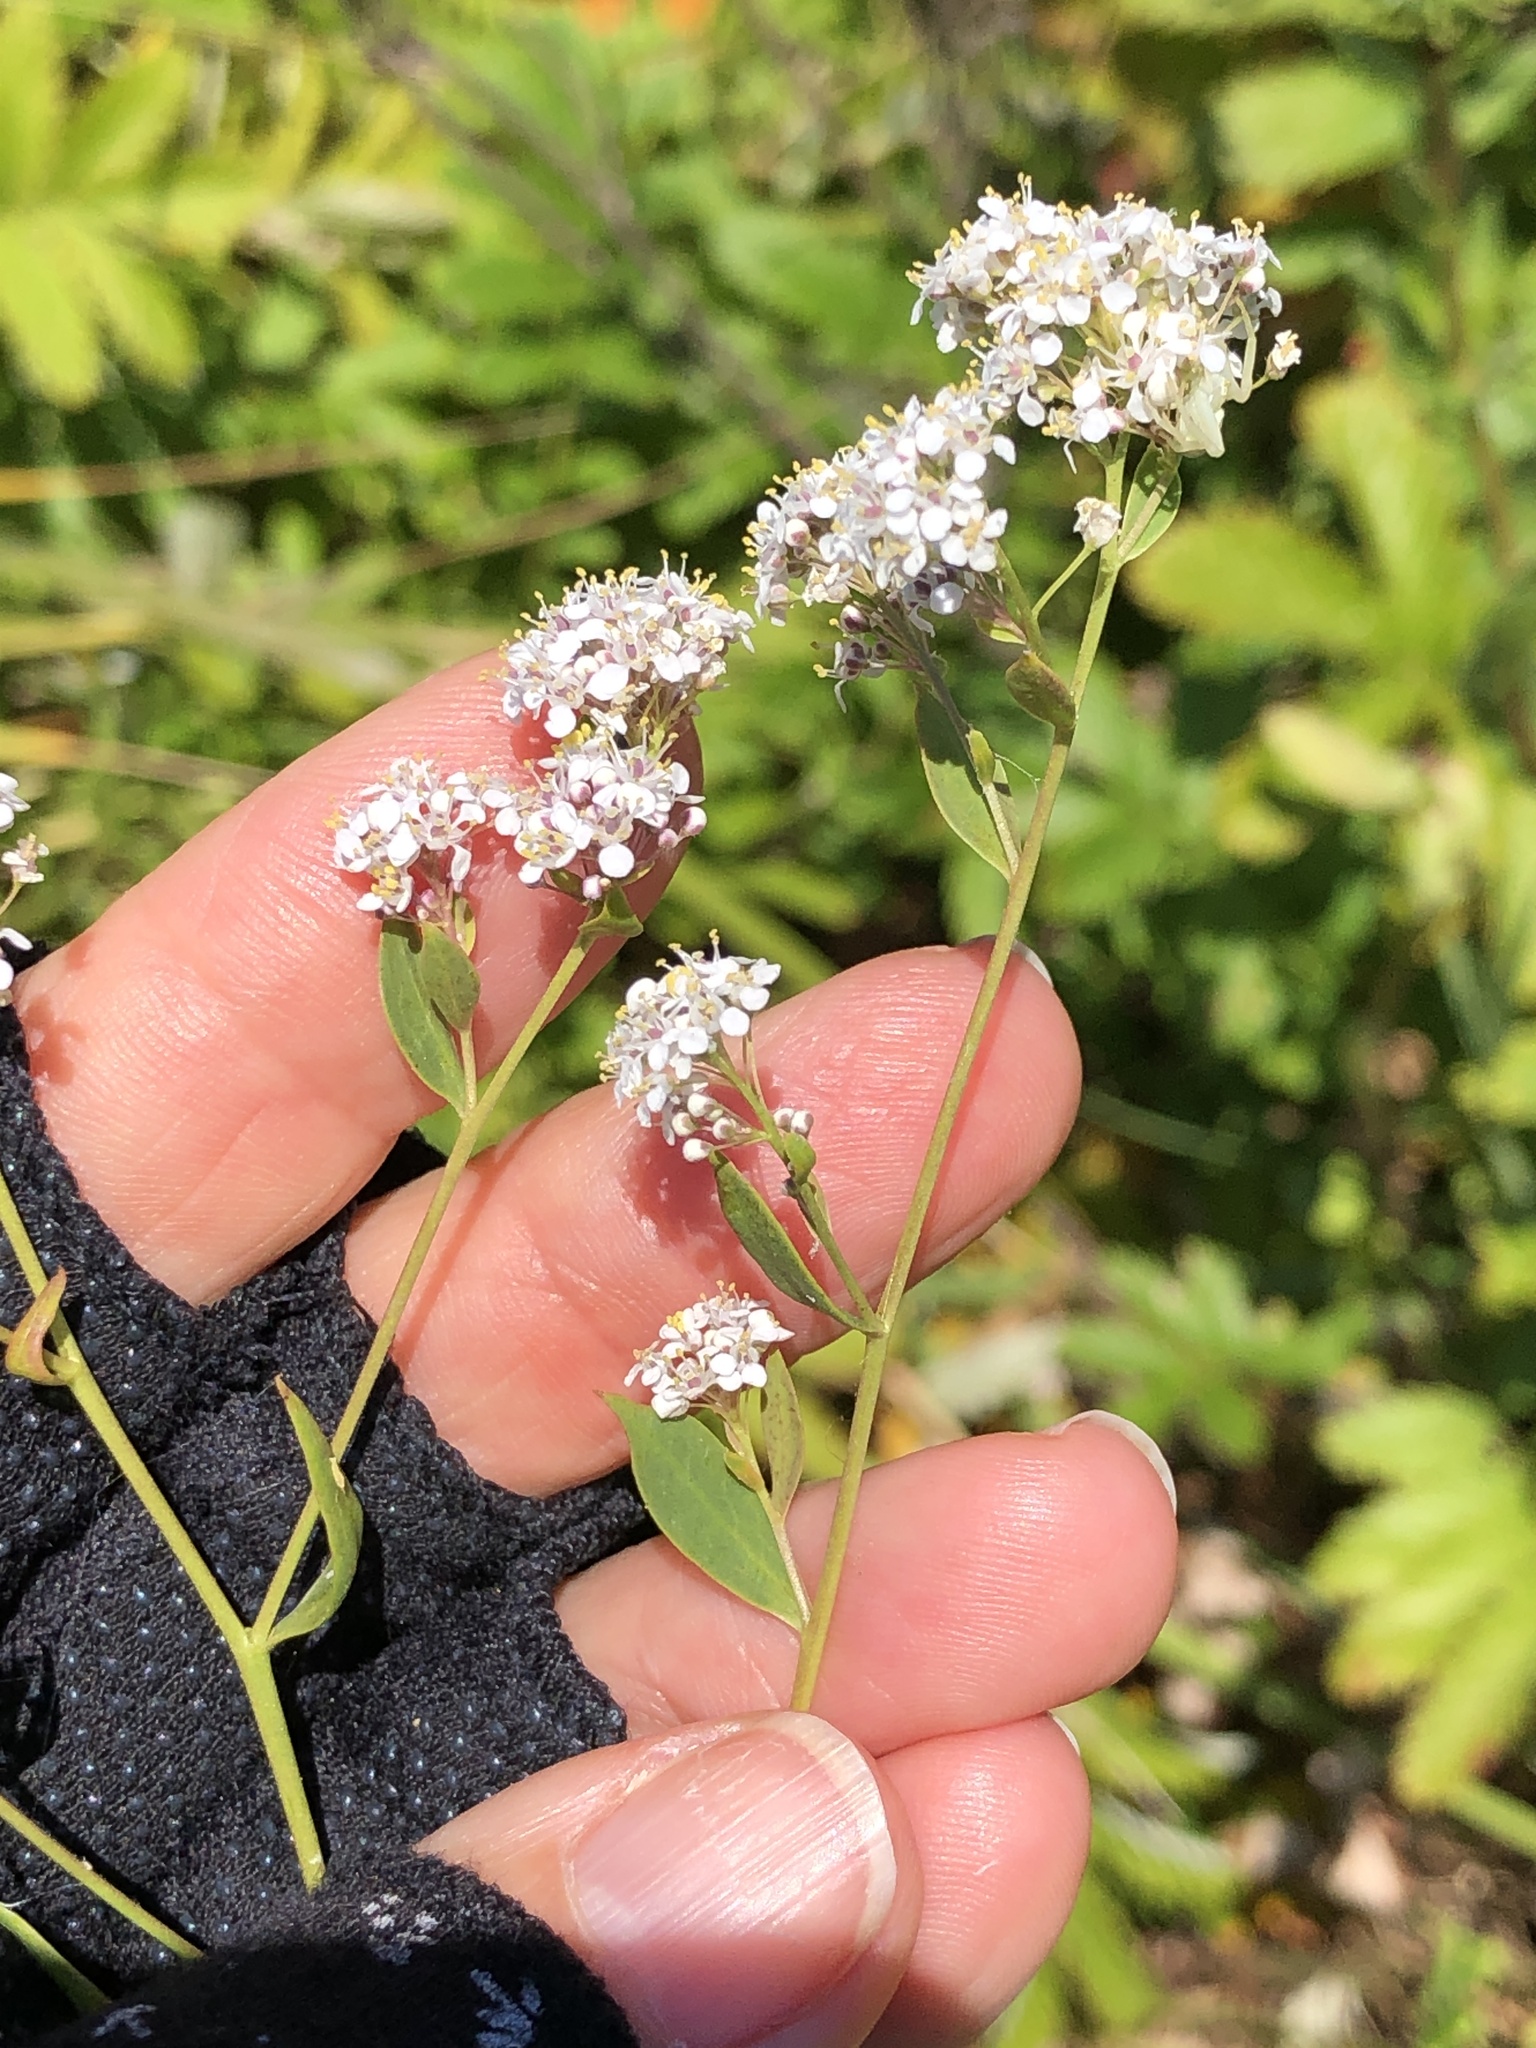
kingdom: Plantae
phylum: Tracheophyta
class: Magnoliopsida
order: Brassicales
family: Brassicaceae
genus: Lepidium
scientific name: Lepidium latifolium
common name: Dittander
